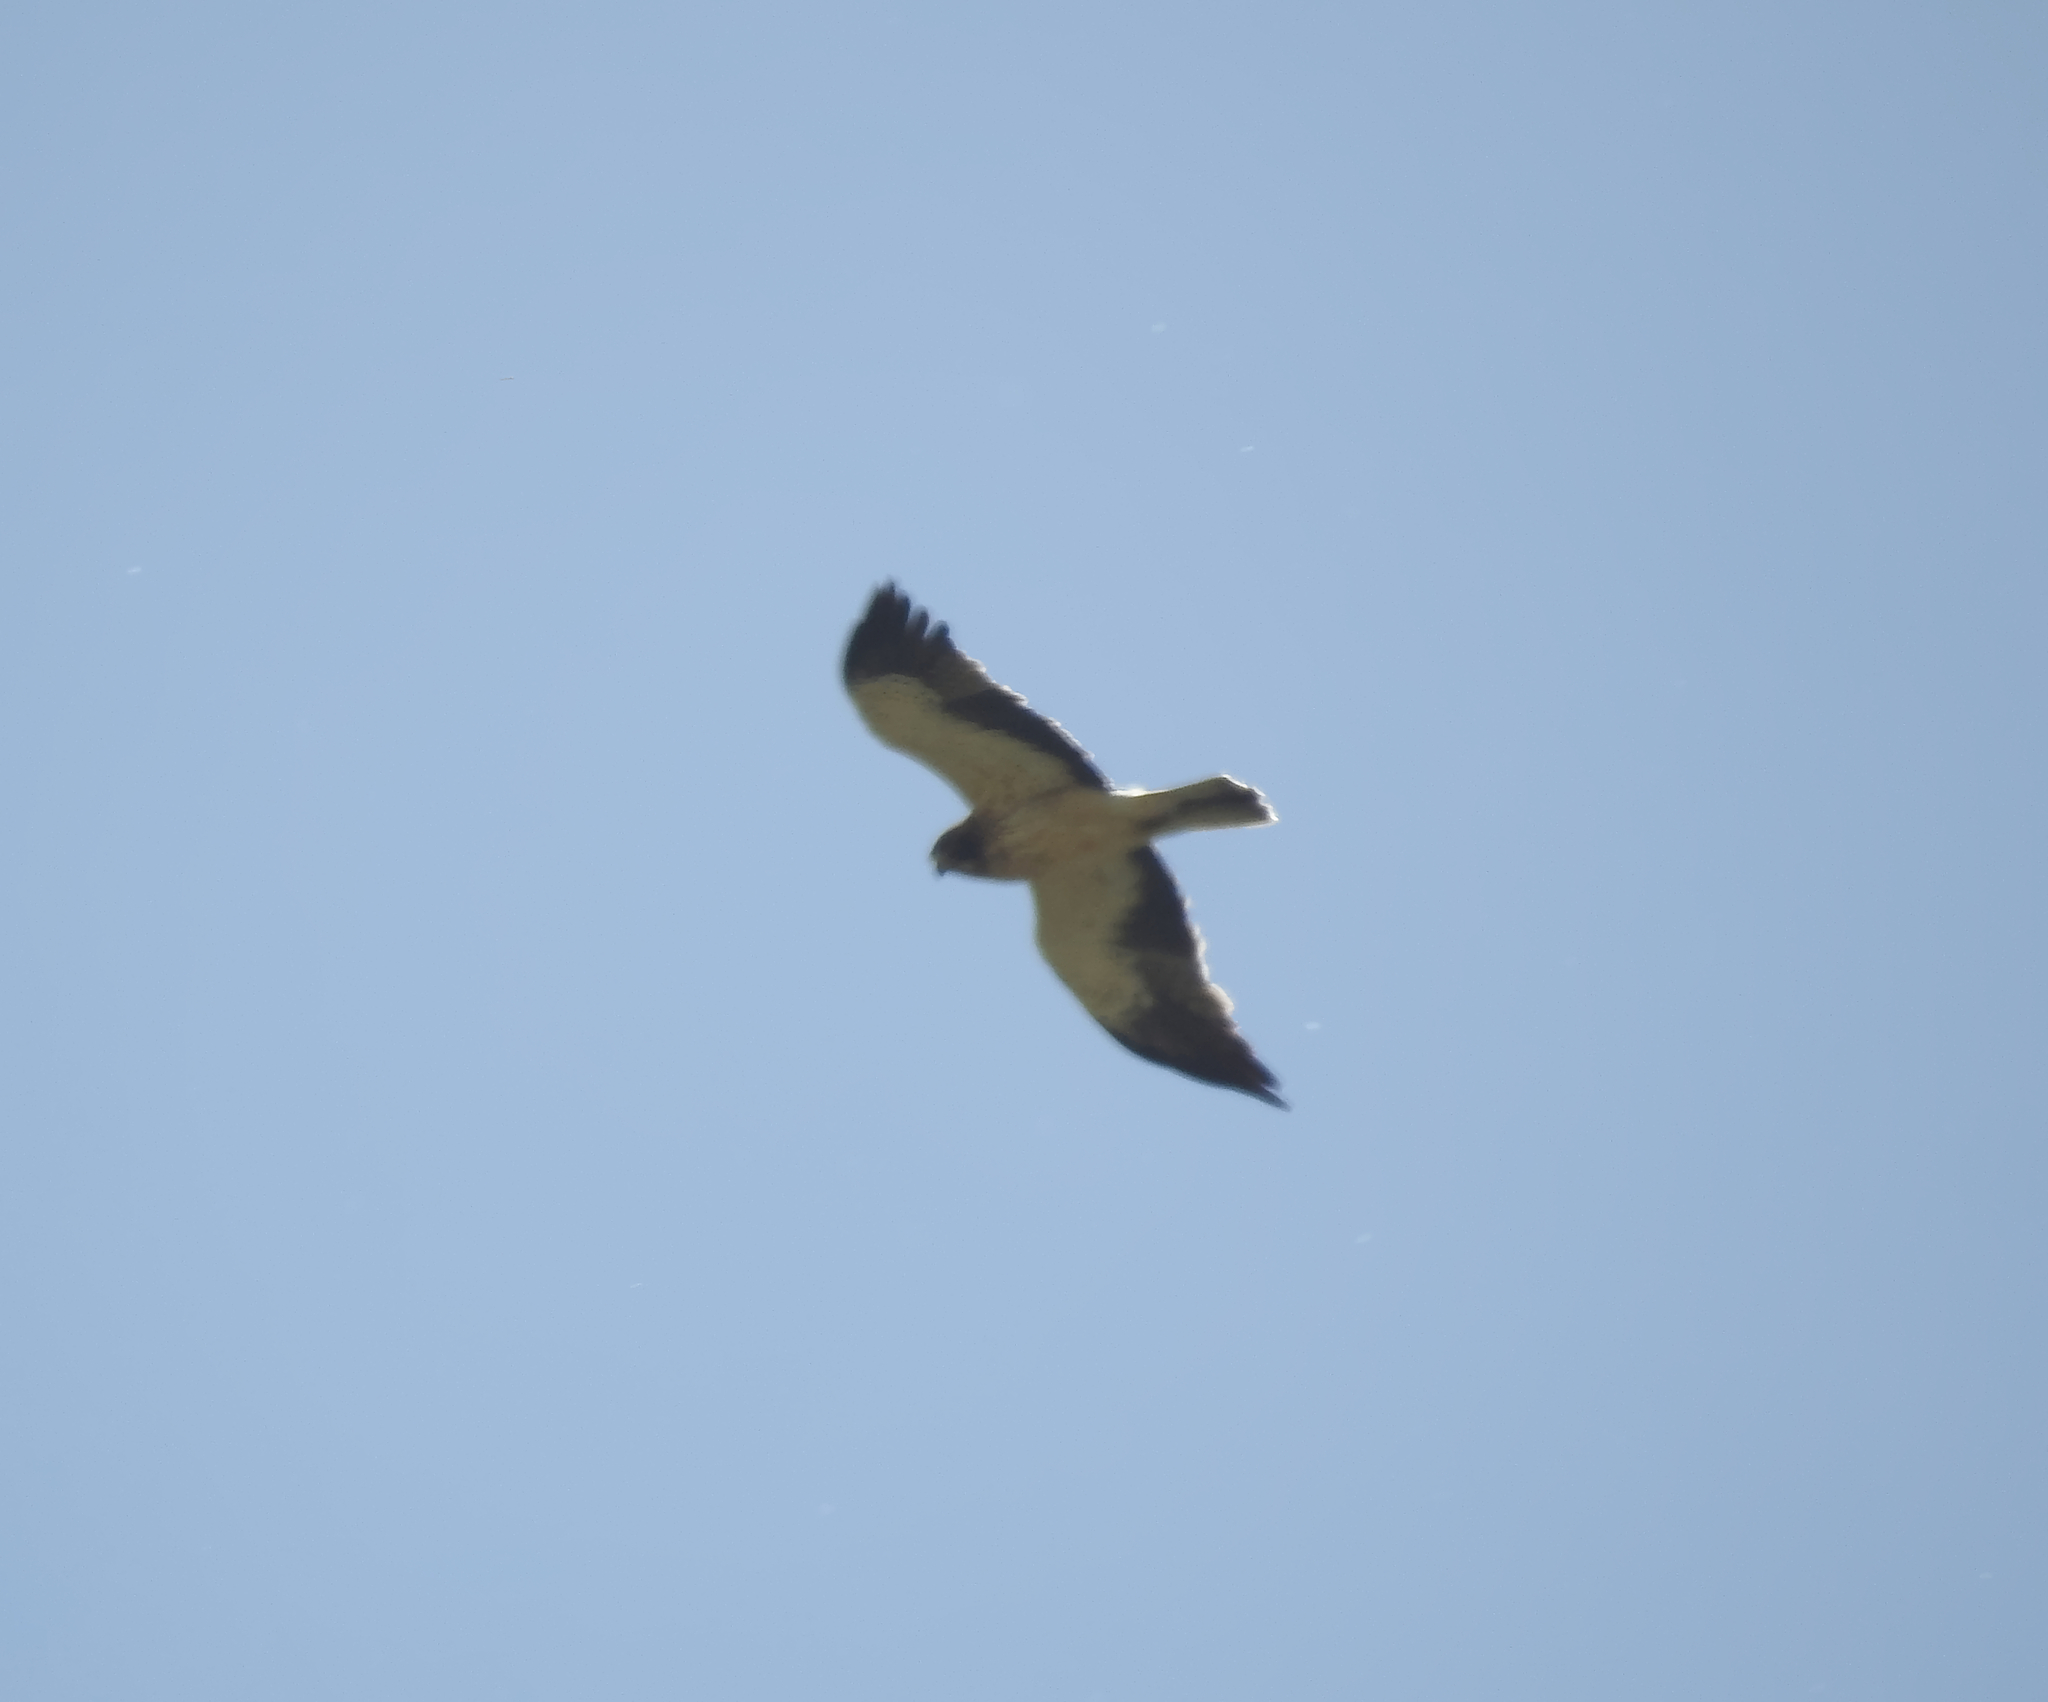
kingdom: Animalia
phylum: Chordata
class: Aves
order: Accipitriformes
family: Accipitridae
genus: Hieraaetus
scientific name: Hieraaetus pennatus
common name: Booted eagle
